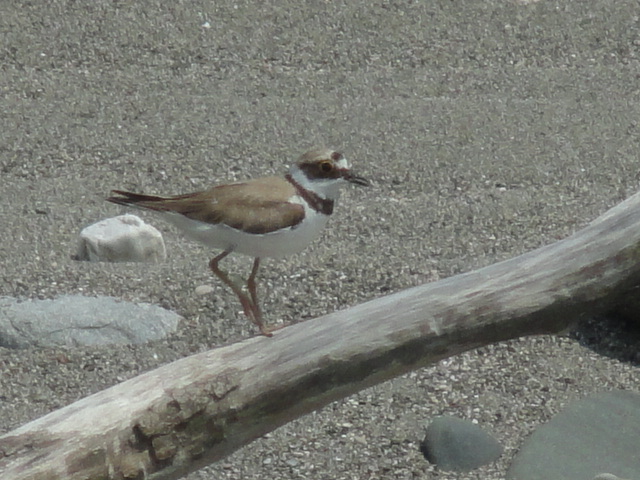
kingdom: Animalia
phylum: Chordata
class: Aves
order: Charadriiformes
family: Charadriidae
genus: Charadrius
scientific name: Charadrius dubius
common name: Little ringed plover
